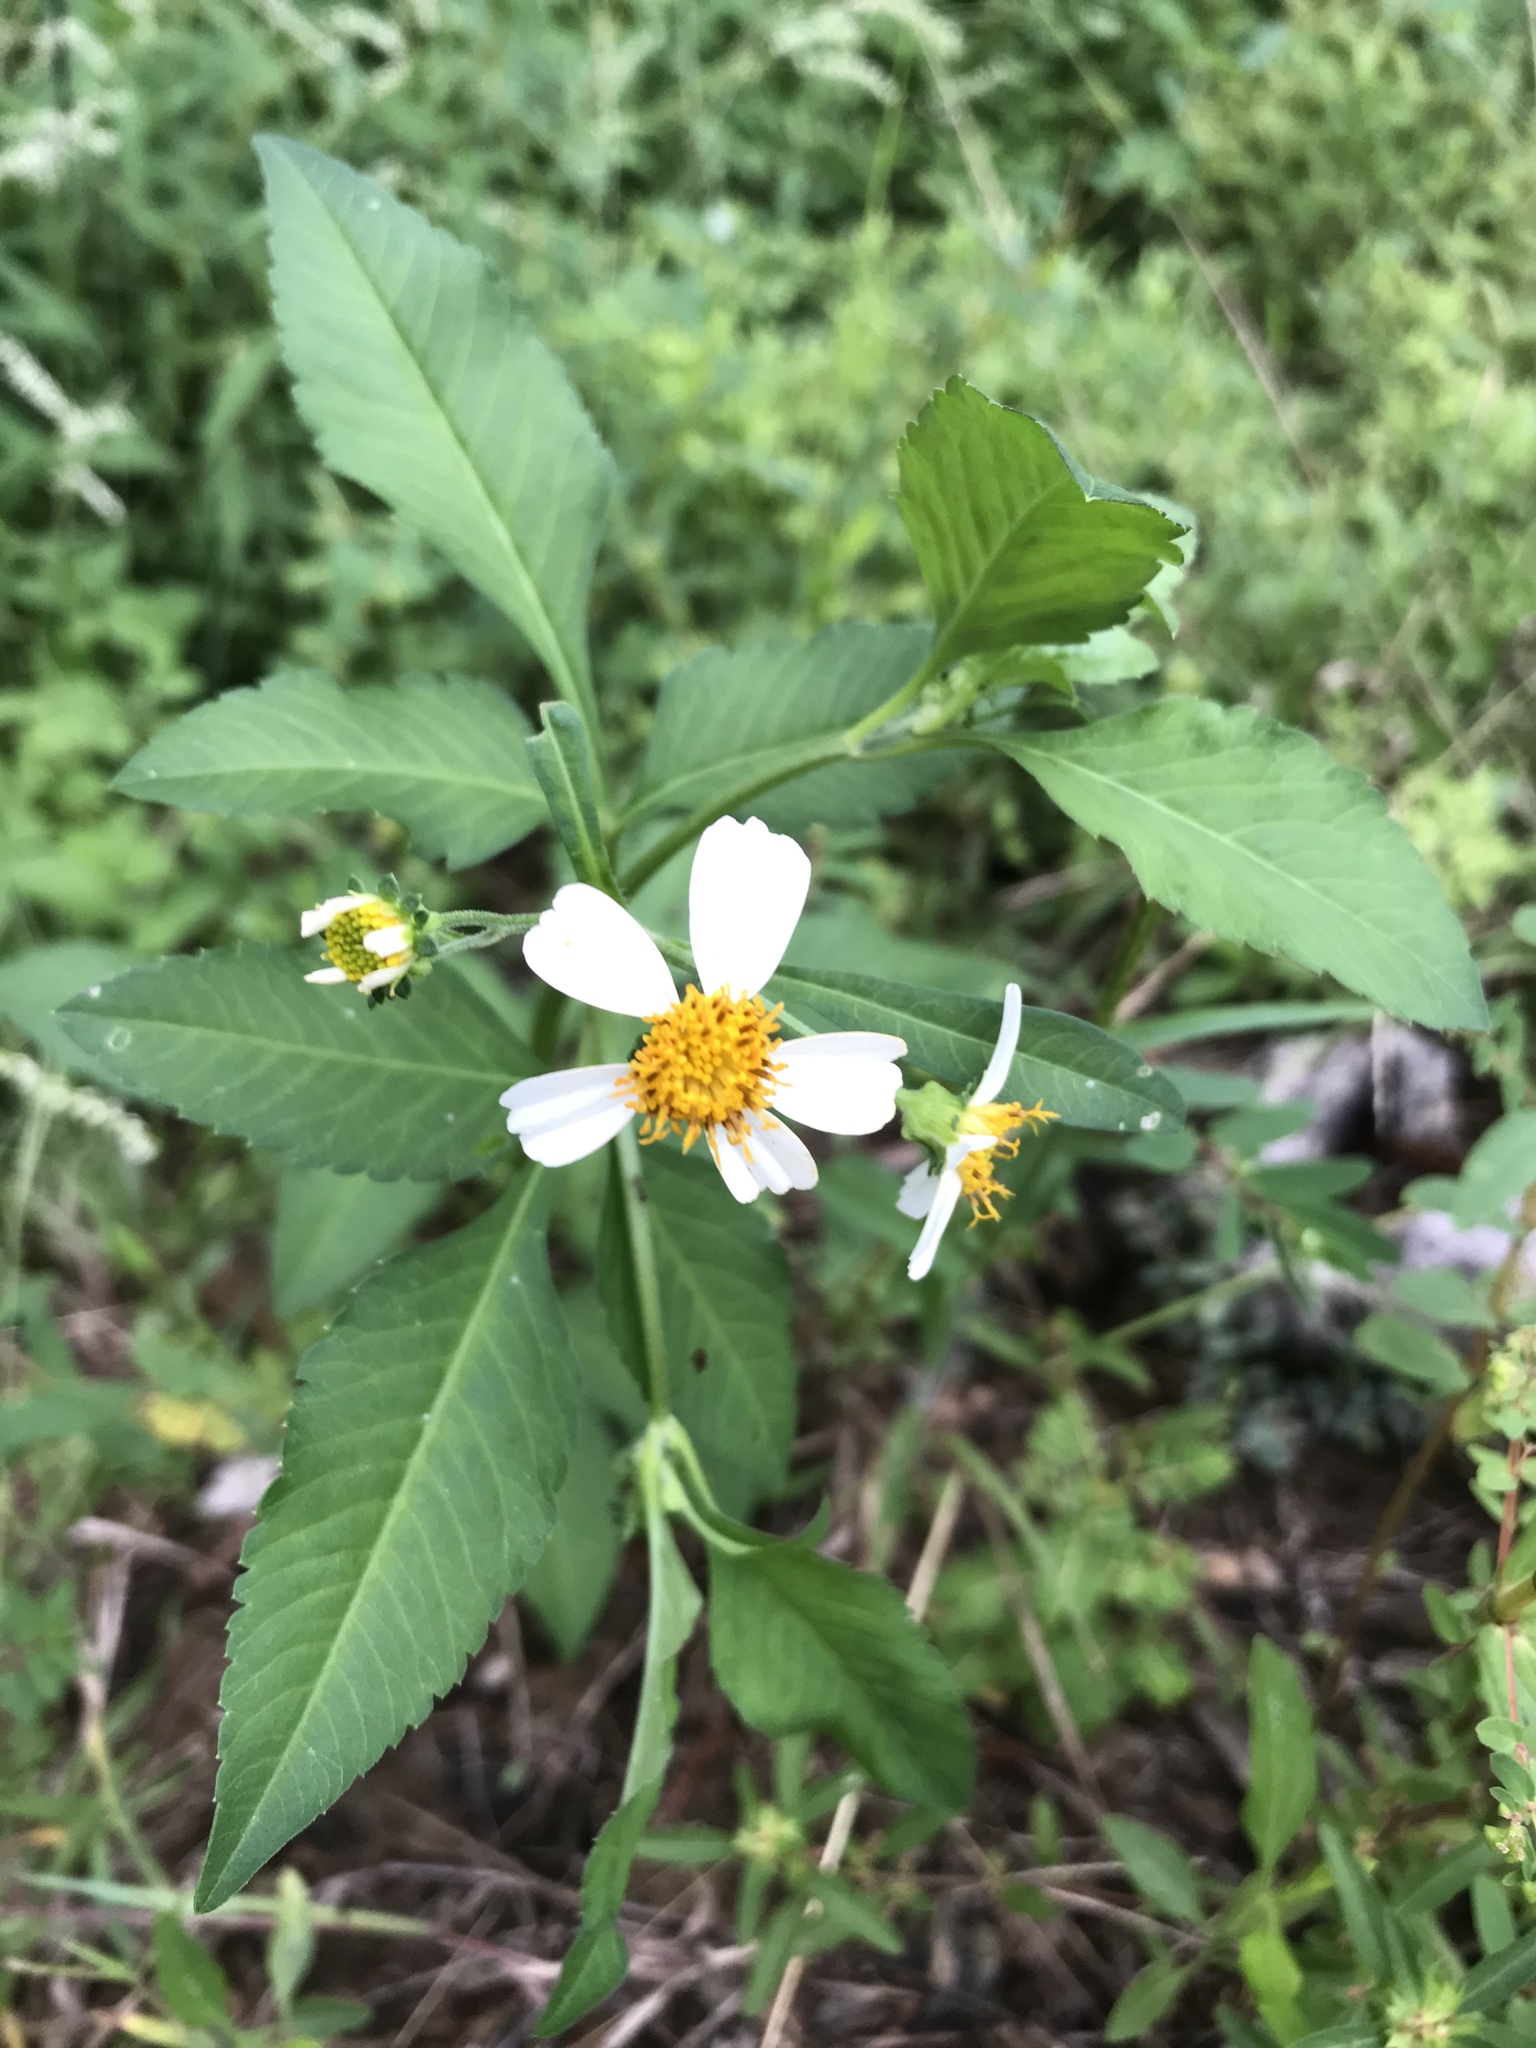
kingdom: Plantae
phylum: Tracheophyta
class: Magnoliopsida
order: Asterales
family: Asteraceae
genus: Bidens
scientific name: Bidens alba
